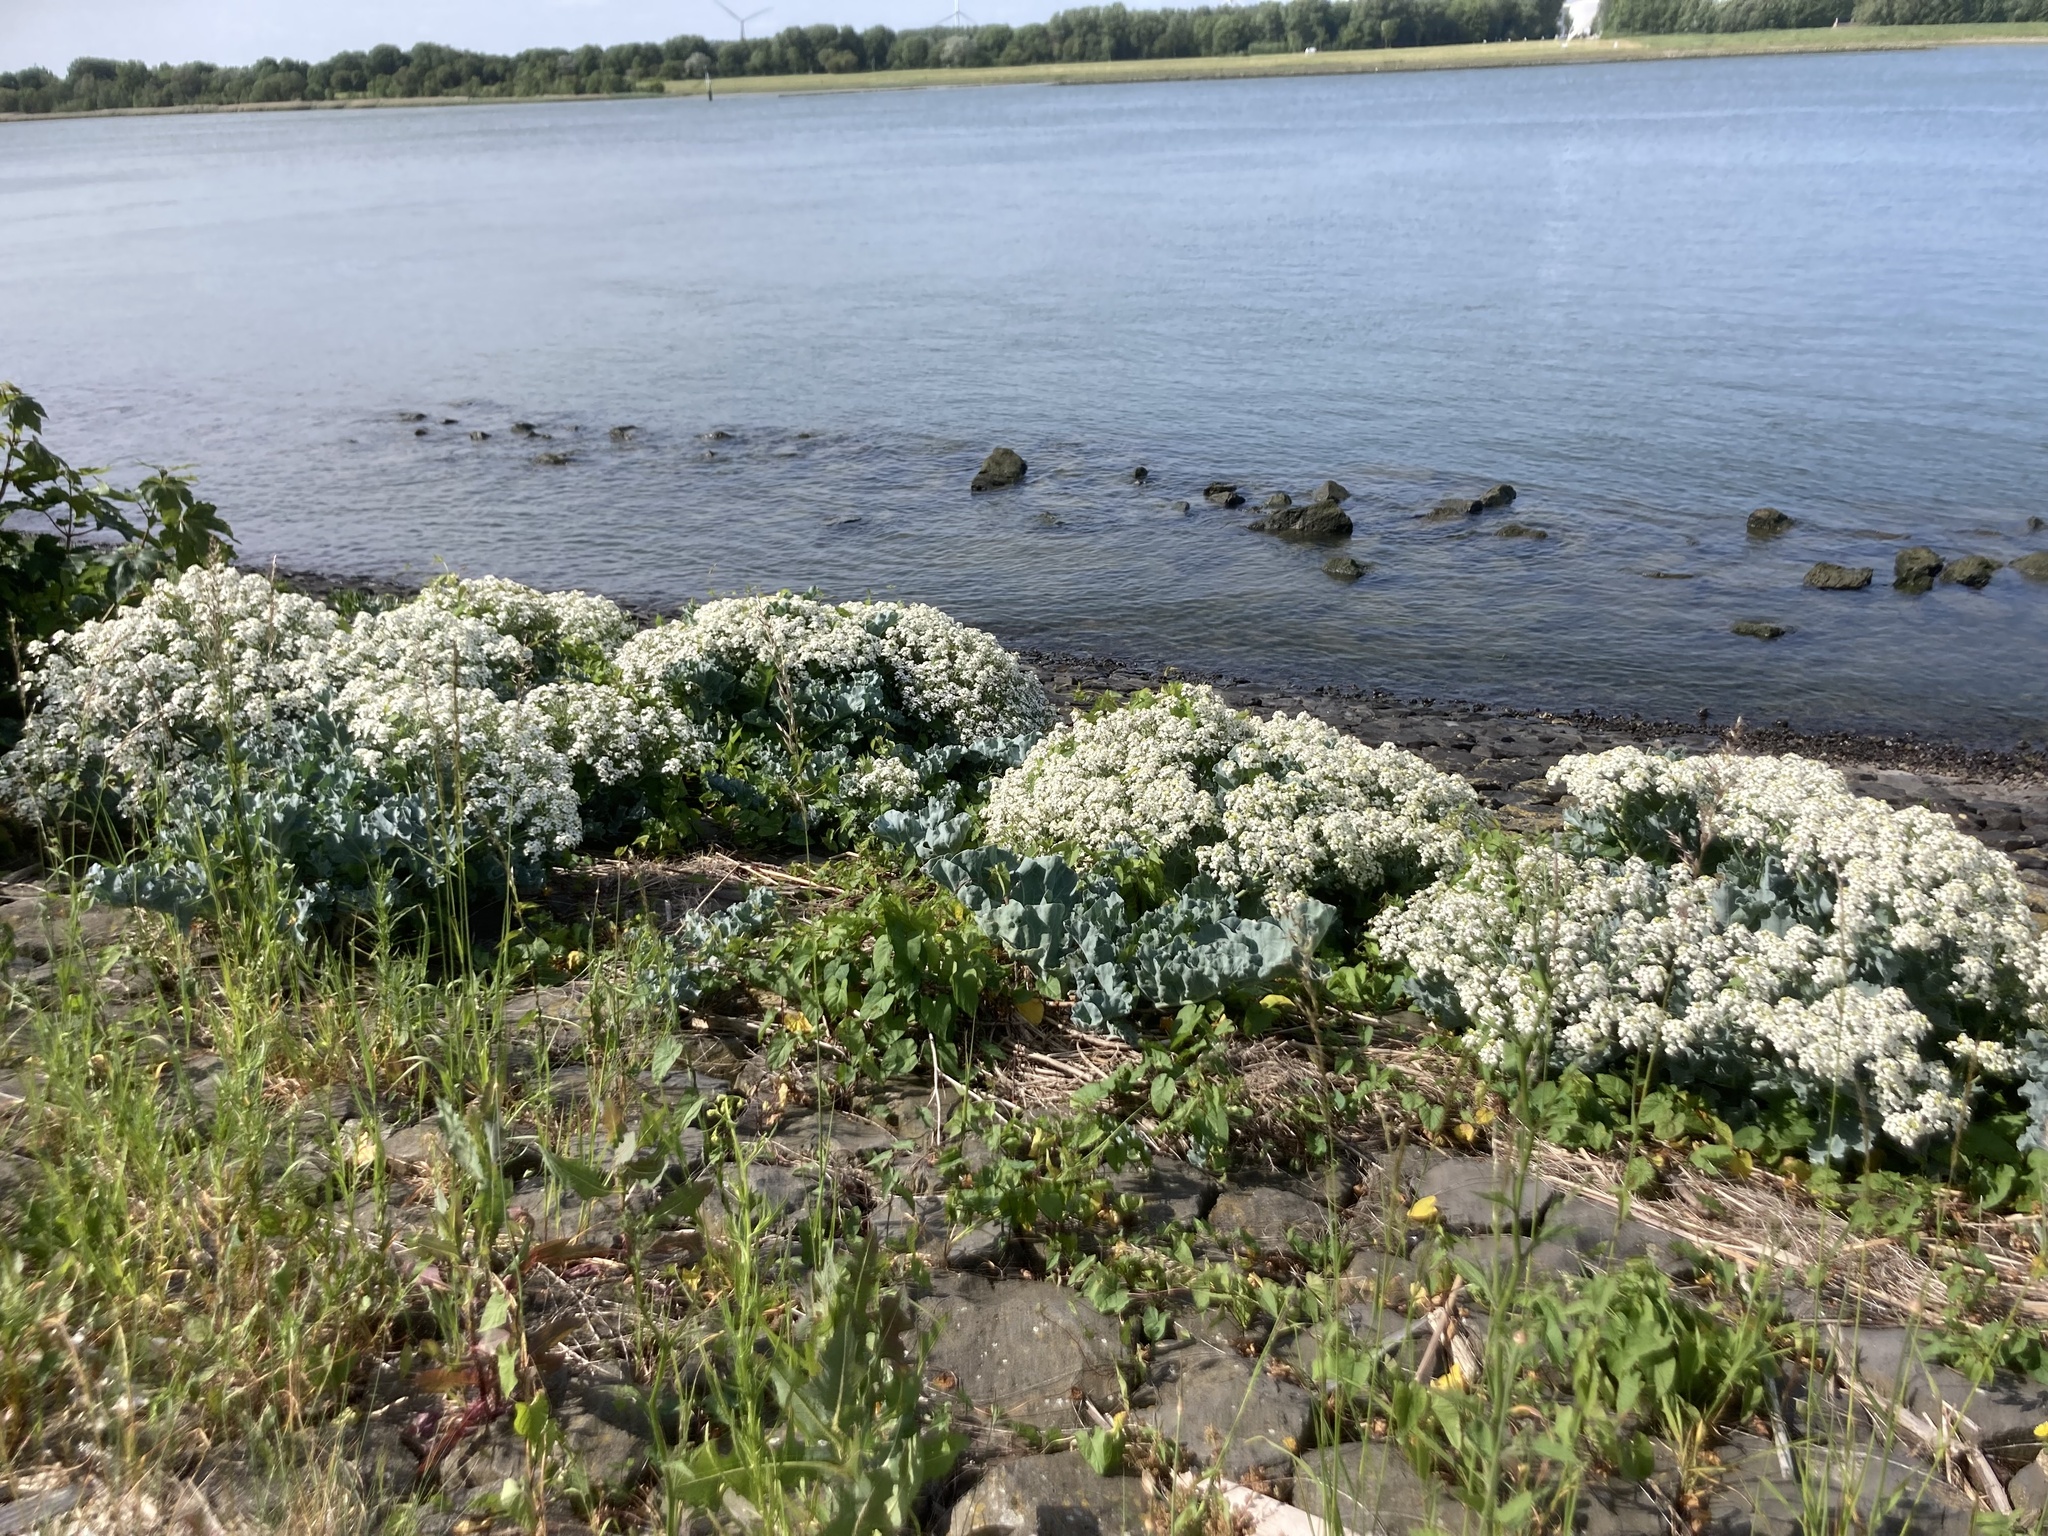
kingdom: Plantae
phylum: Tracheophyta
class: Magnoliopsida
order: Brassicales
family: Brassicaceae
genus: Crambe
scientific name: Crambe maritima
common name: Sea-kale
